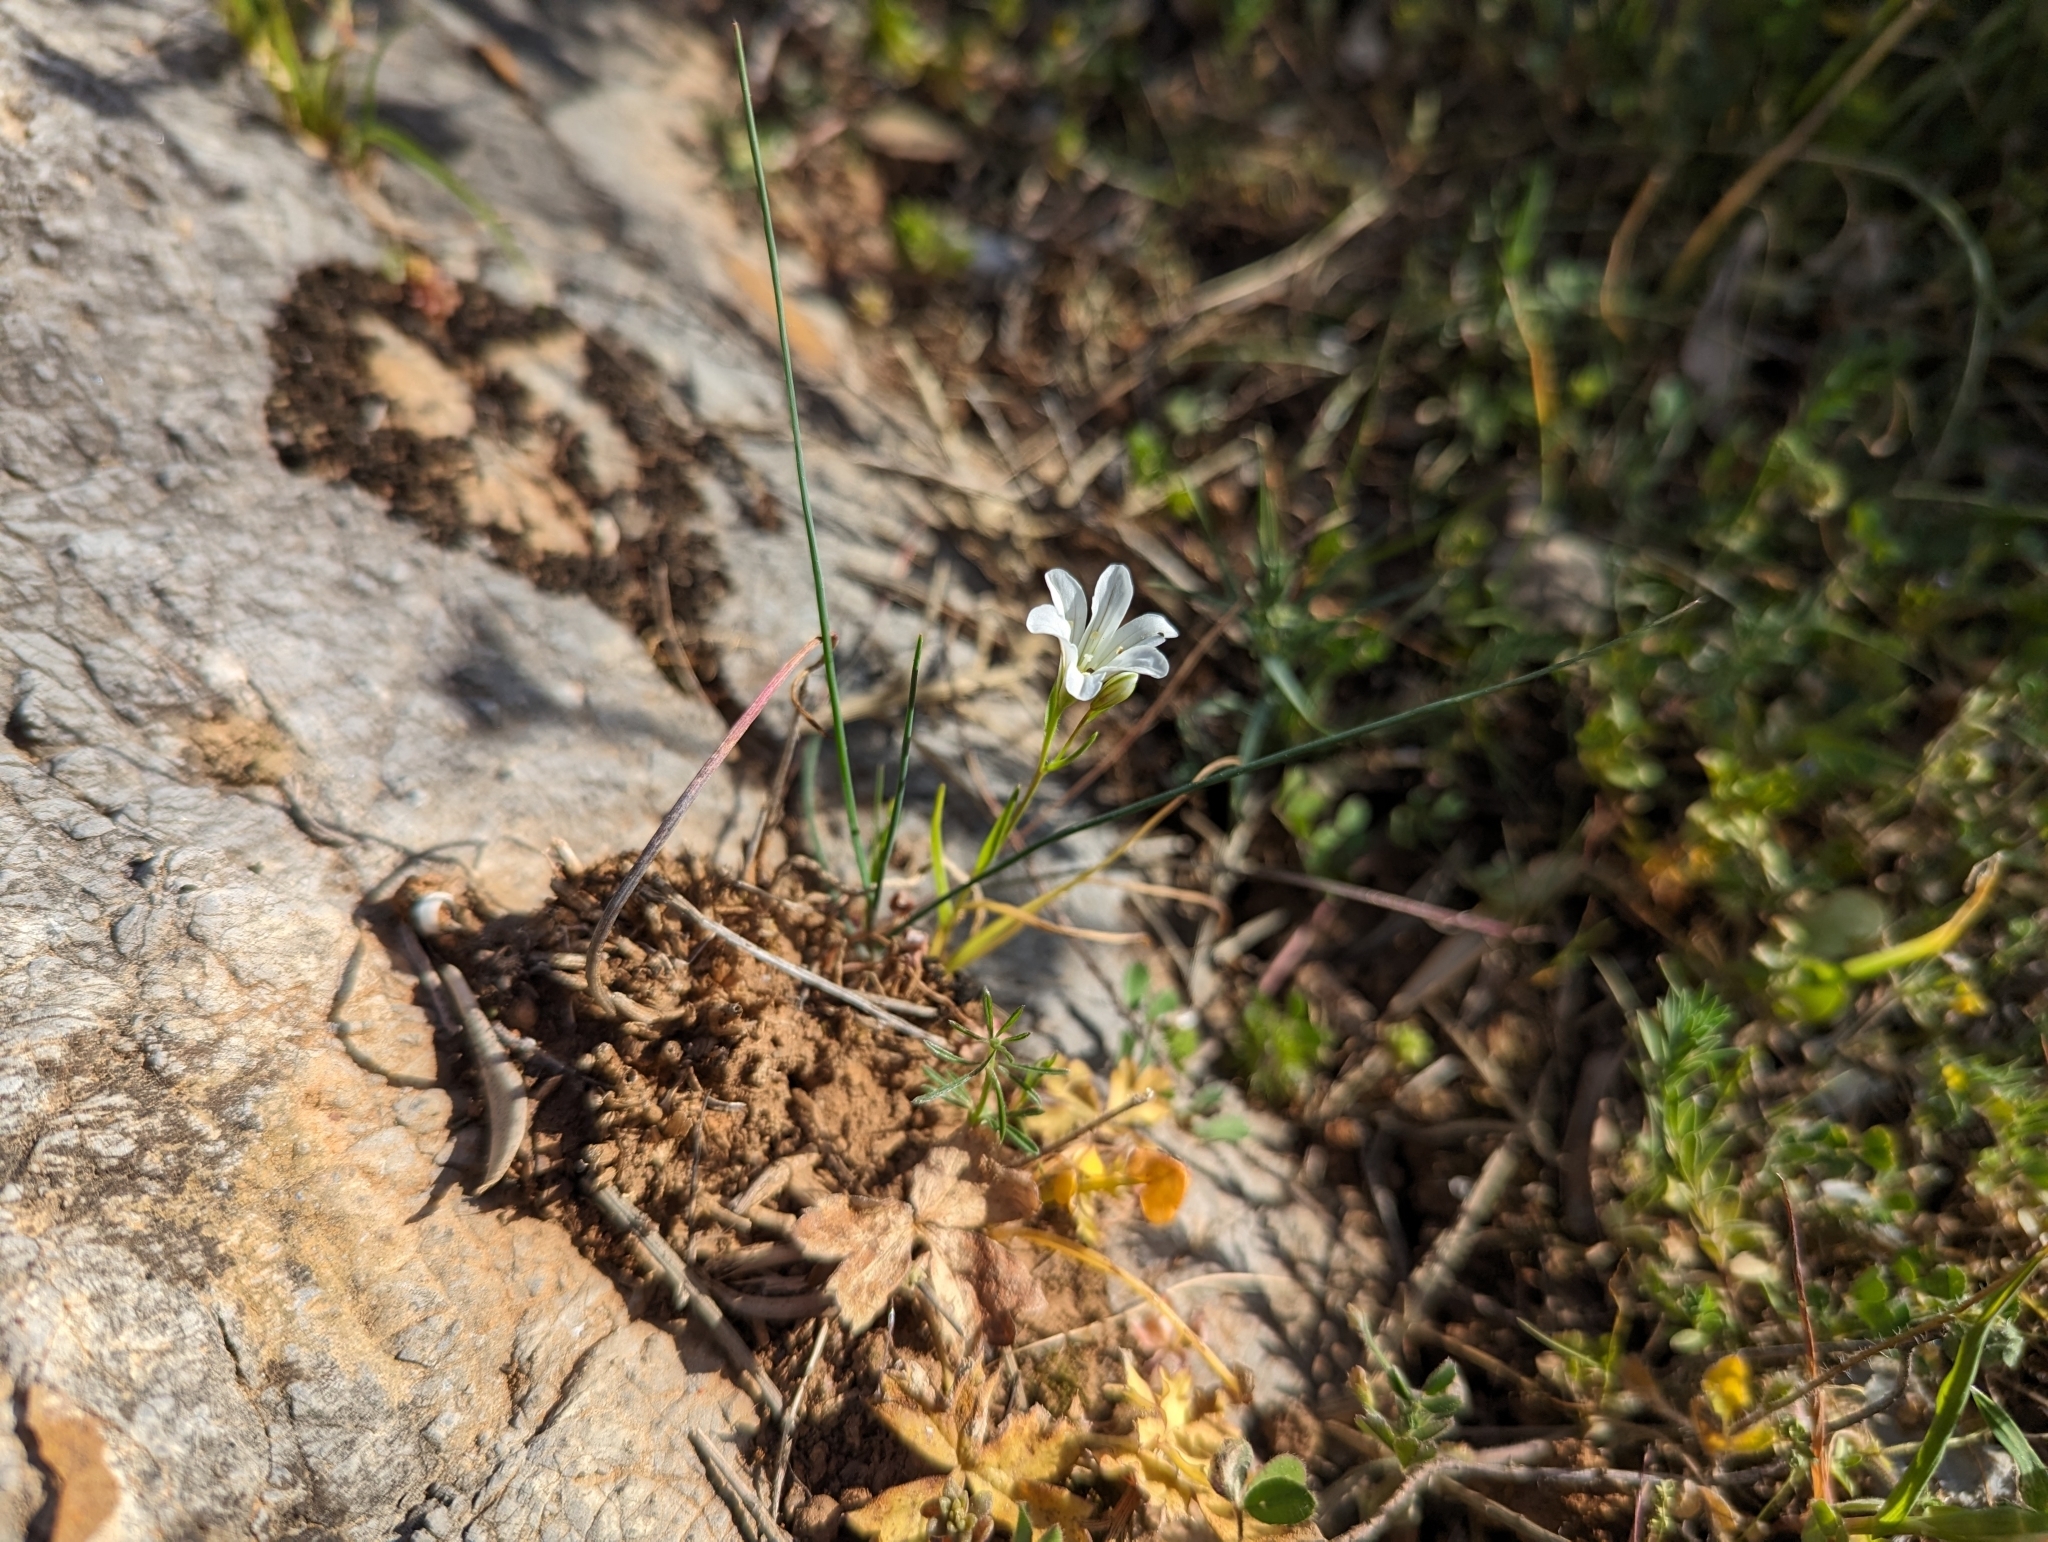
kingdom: Plantae
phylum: Tracheophyta
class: Liliopsida
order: Liliales
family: Liliaceae
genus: Gagea
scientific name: Gagea graeca
